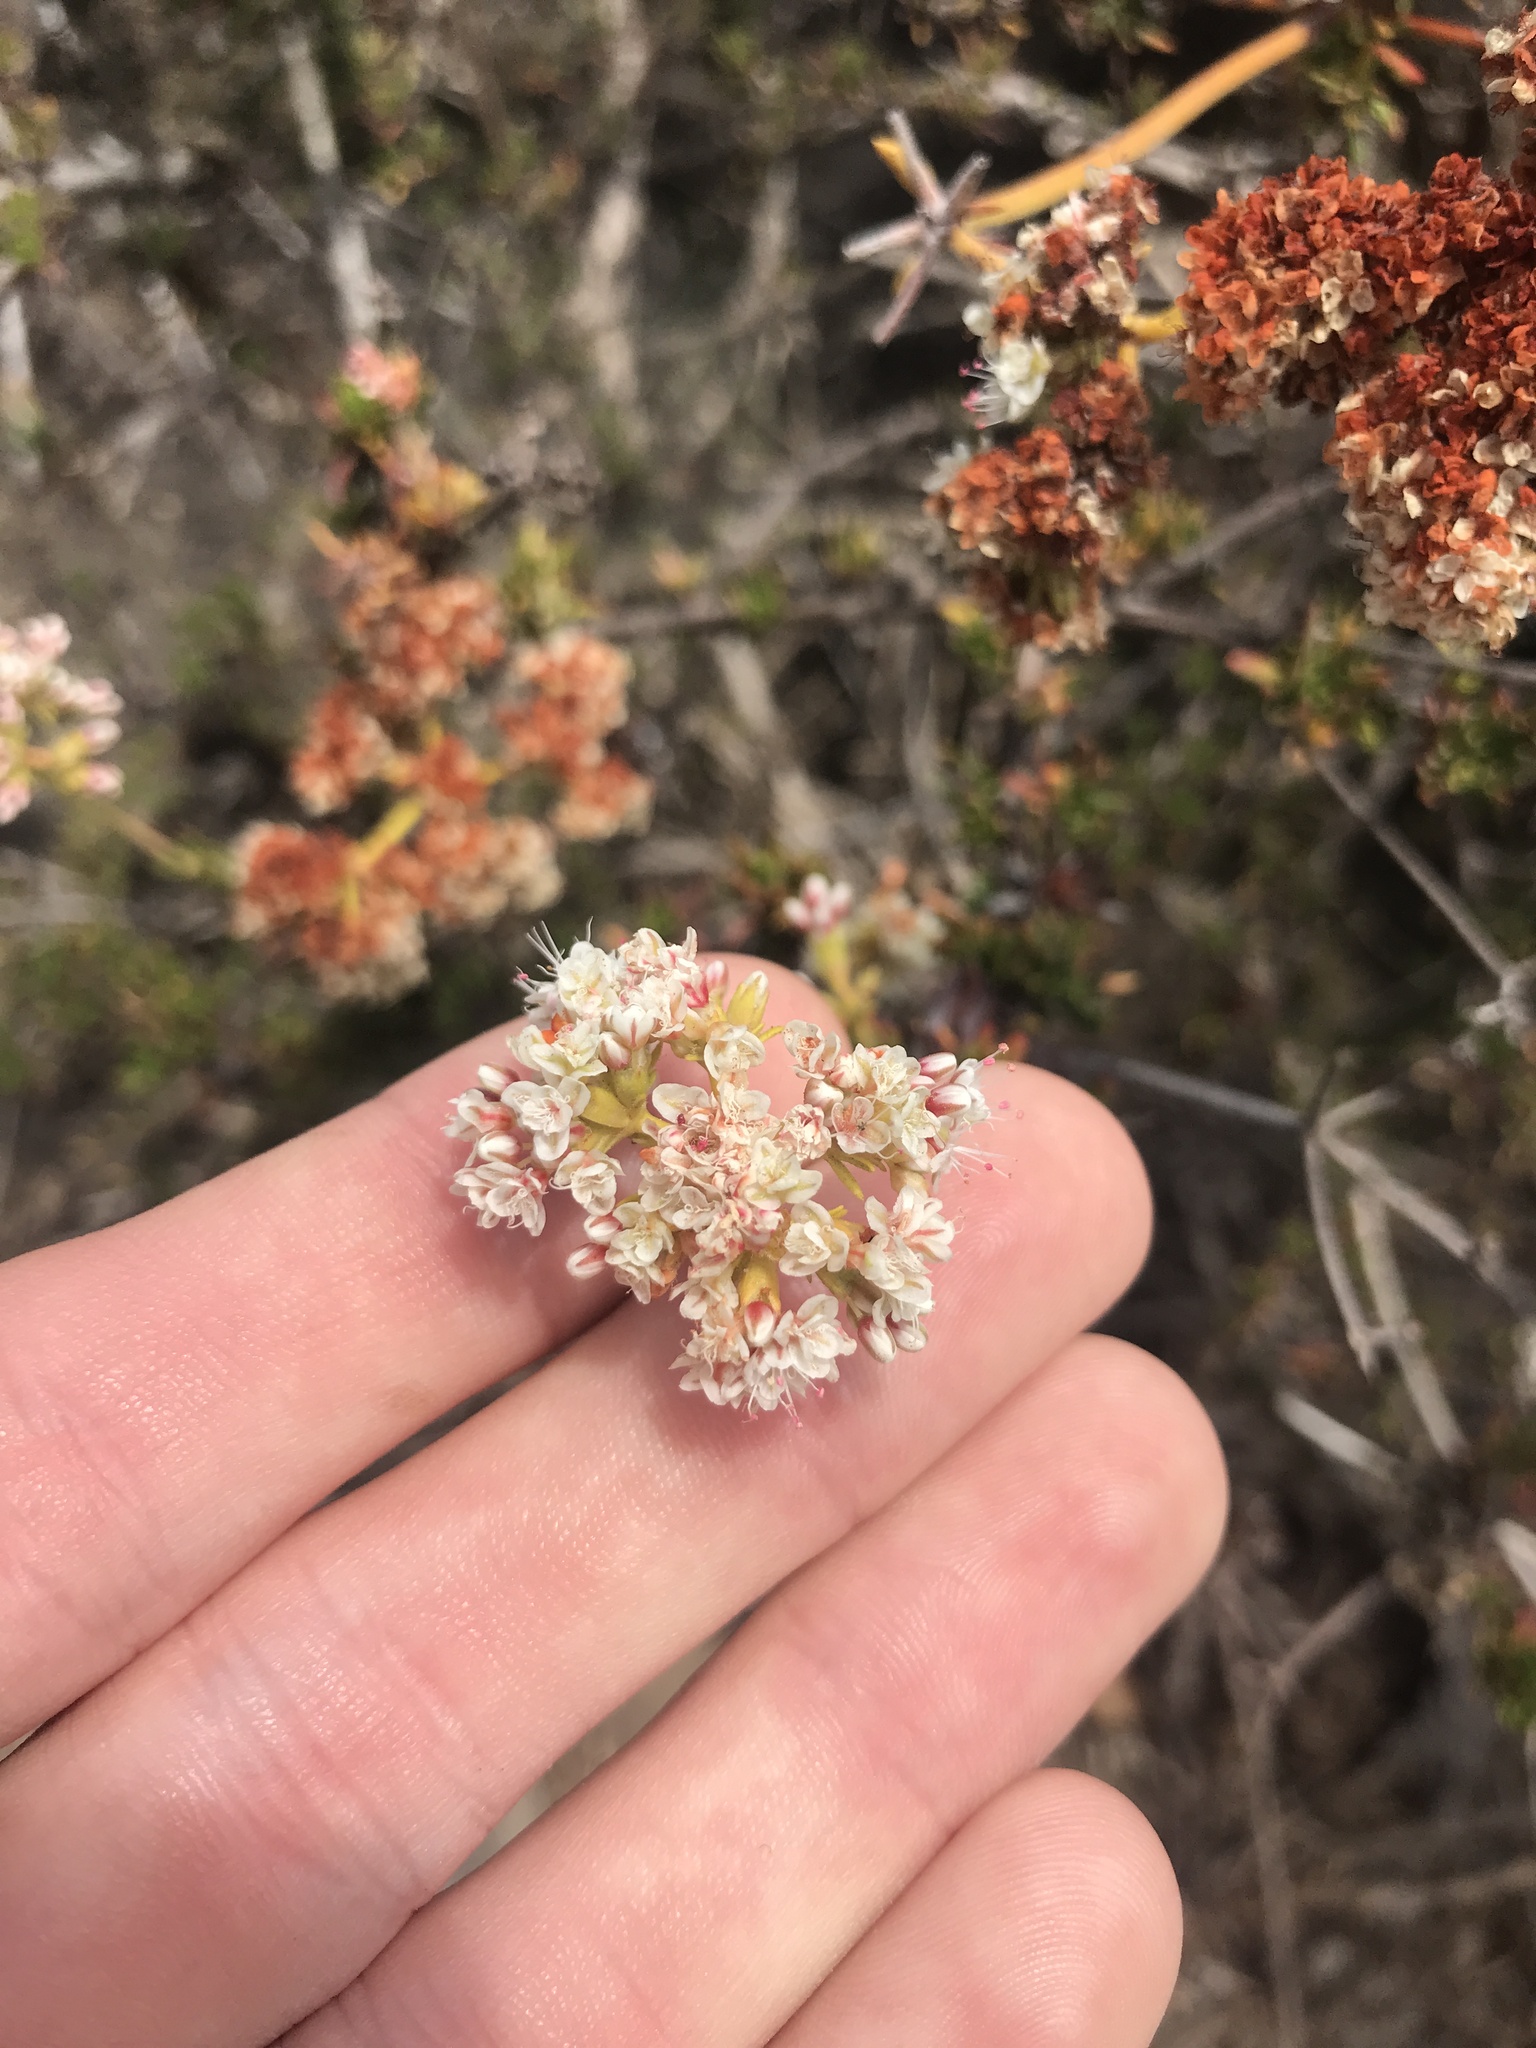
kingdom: Plantae
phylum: Tracheophyta
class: Magnoliopsida
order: Caryophyllales
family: Polygonaceae
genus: Eriogonum
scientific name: Eriogonum fasciculatum
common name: California wild buckwheat
